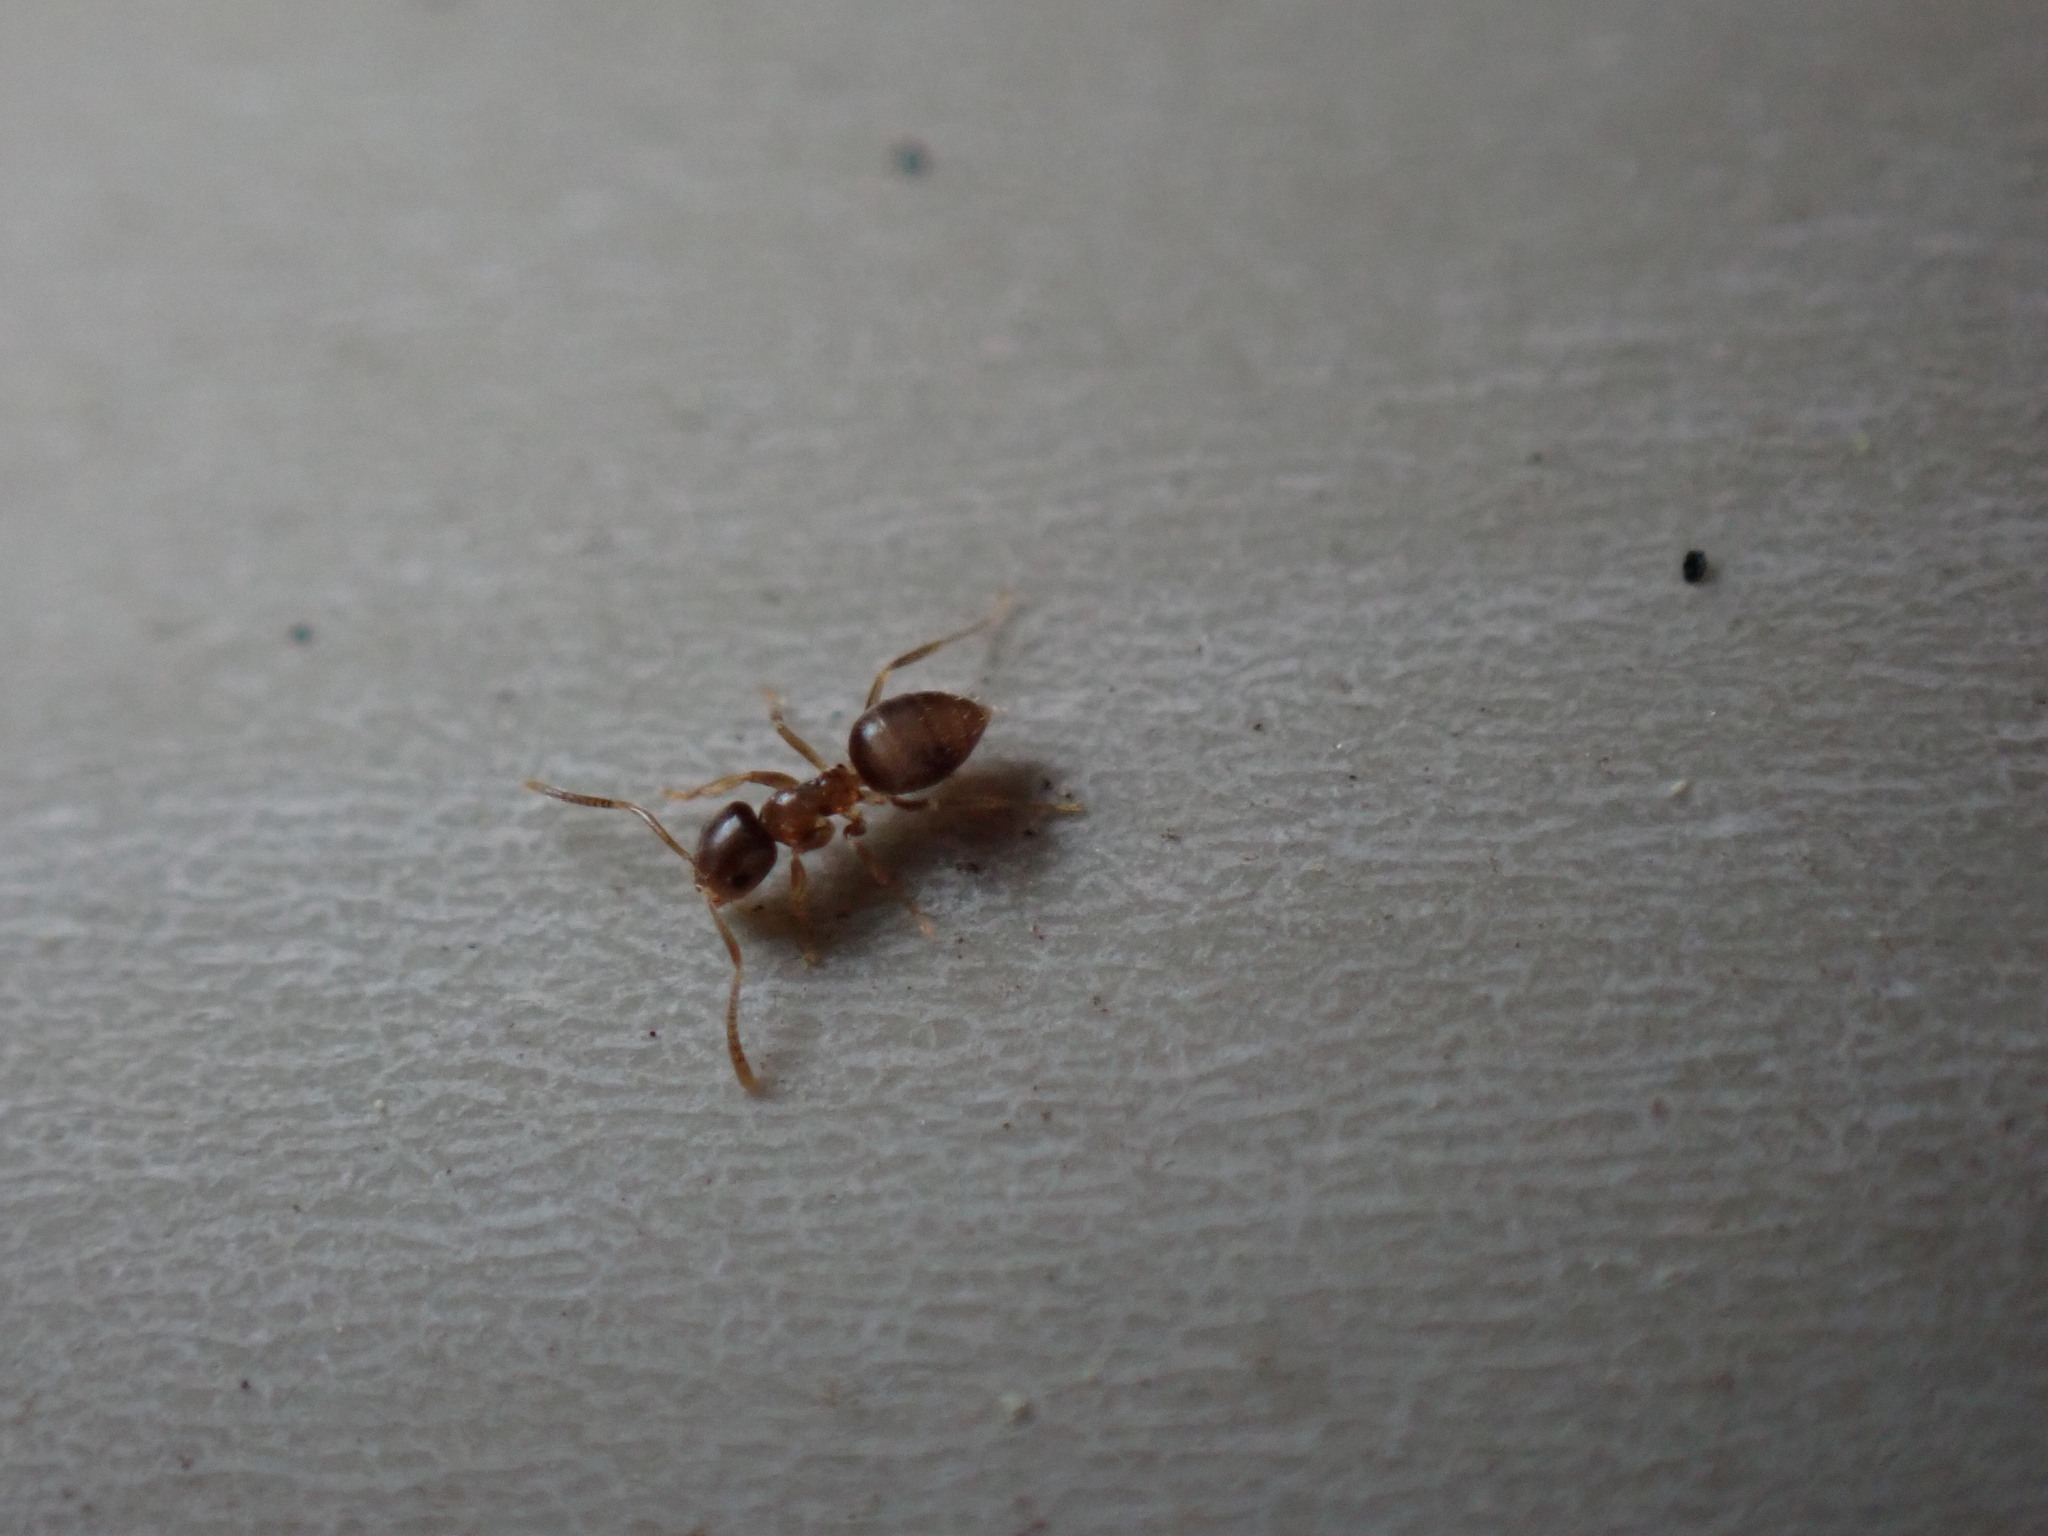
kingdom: Animalia
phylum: Arthropoda
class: Insecta
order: Hymenoptera
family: Formicidae
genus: Paraparatrechina
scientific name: Paraparatrechina
